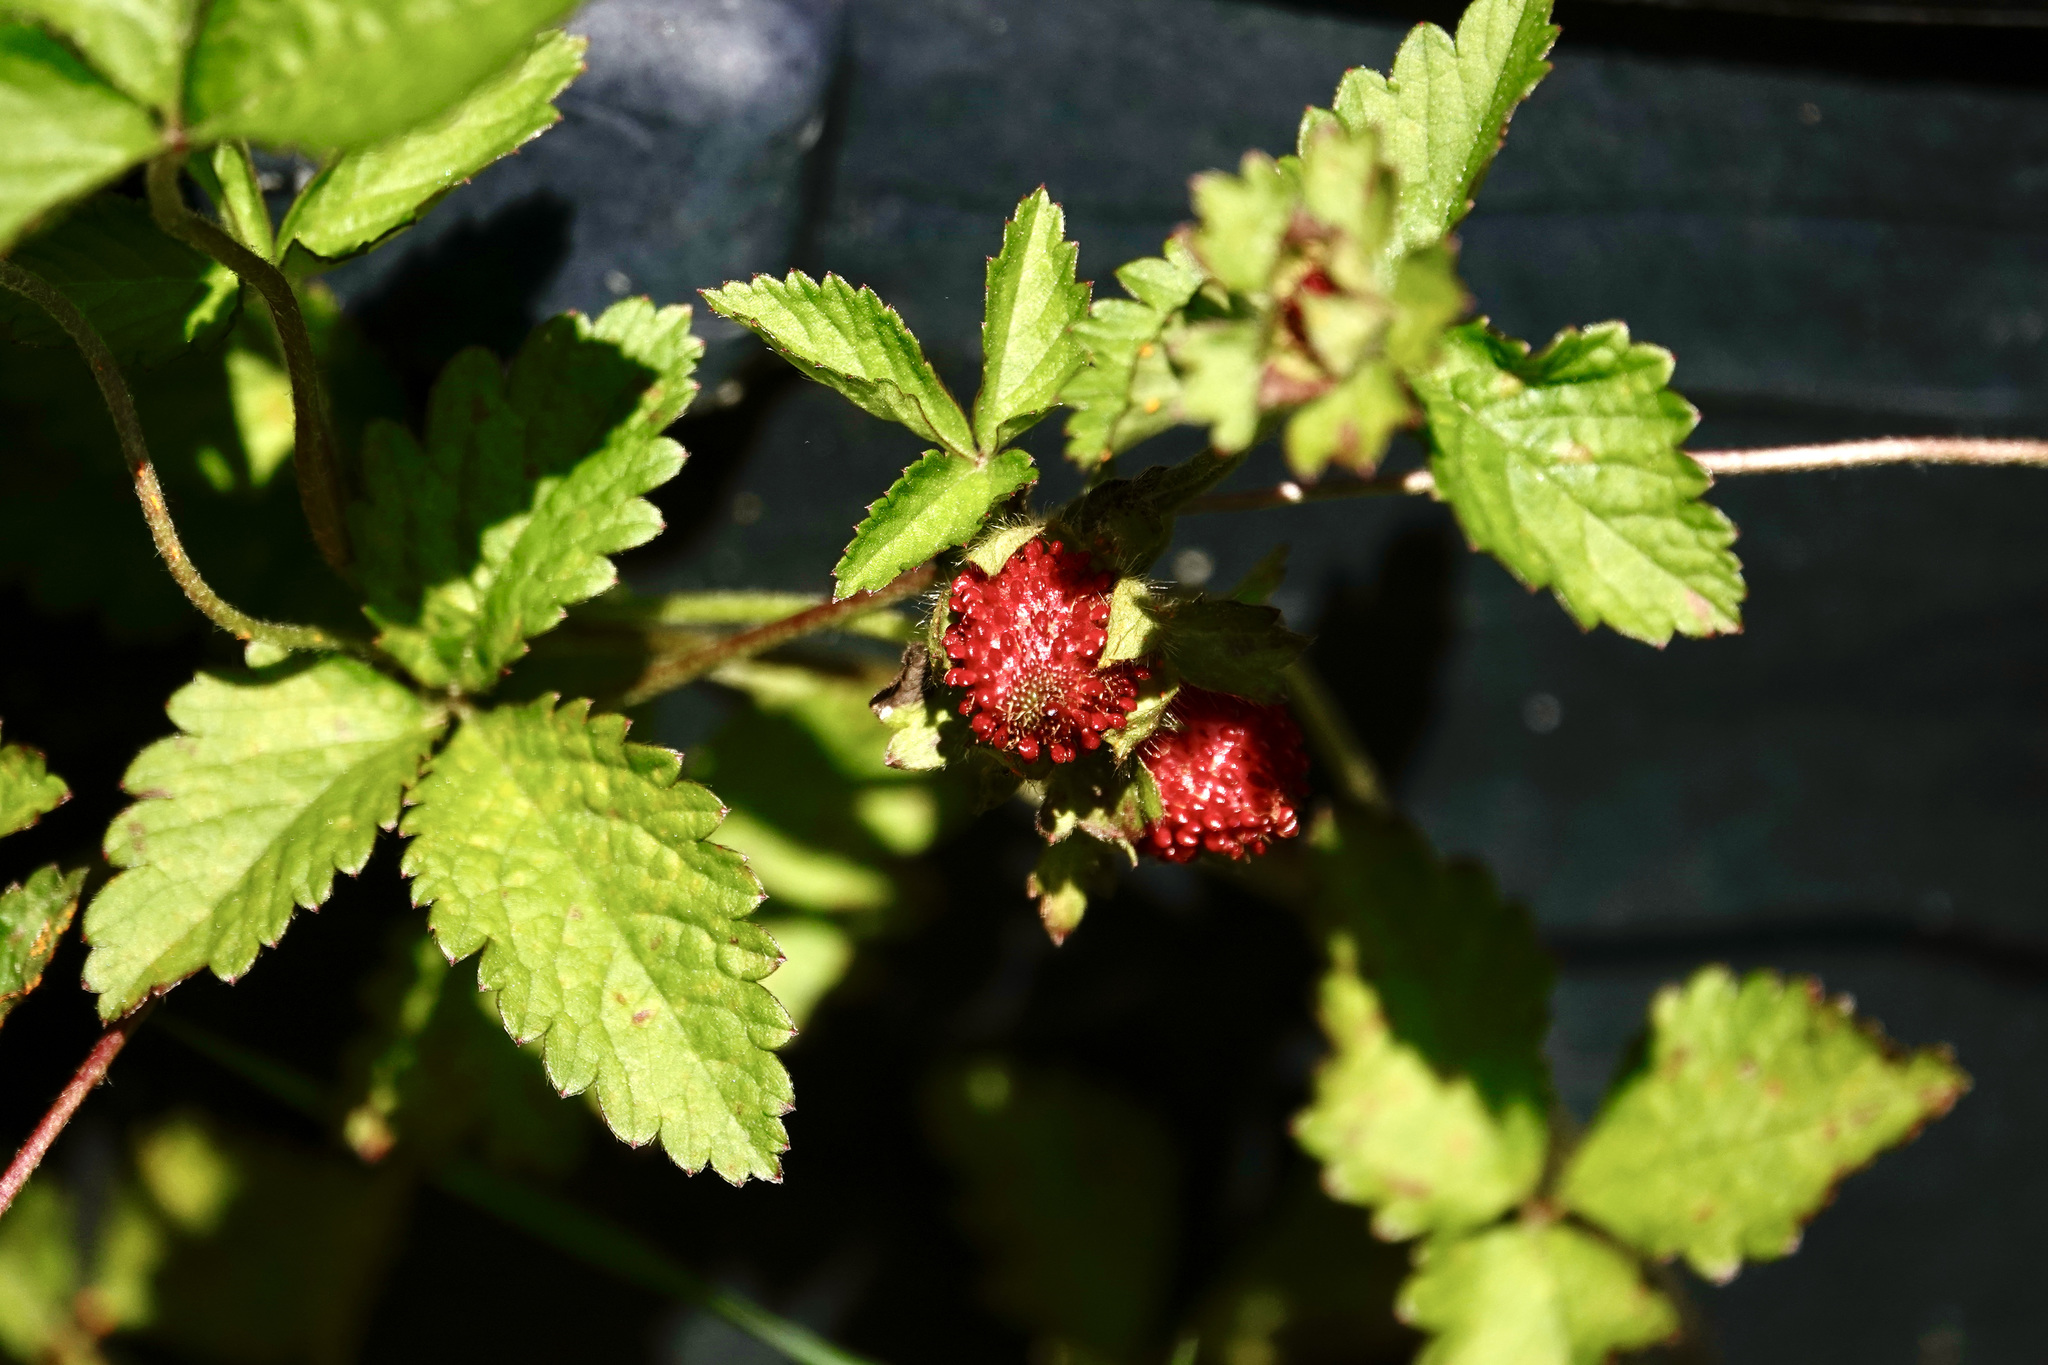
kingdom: Plantae
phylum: Tracheophyta
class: Magnoliopsida
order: Rosales
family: Rosaceae
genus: Potentilla
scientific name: Potentilla indica
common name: Yellow-flowered strawberry
